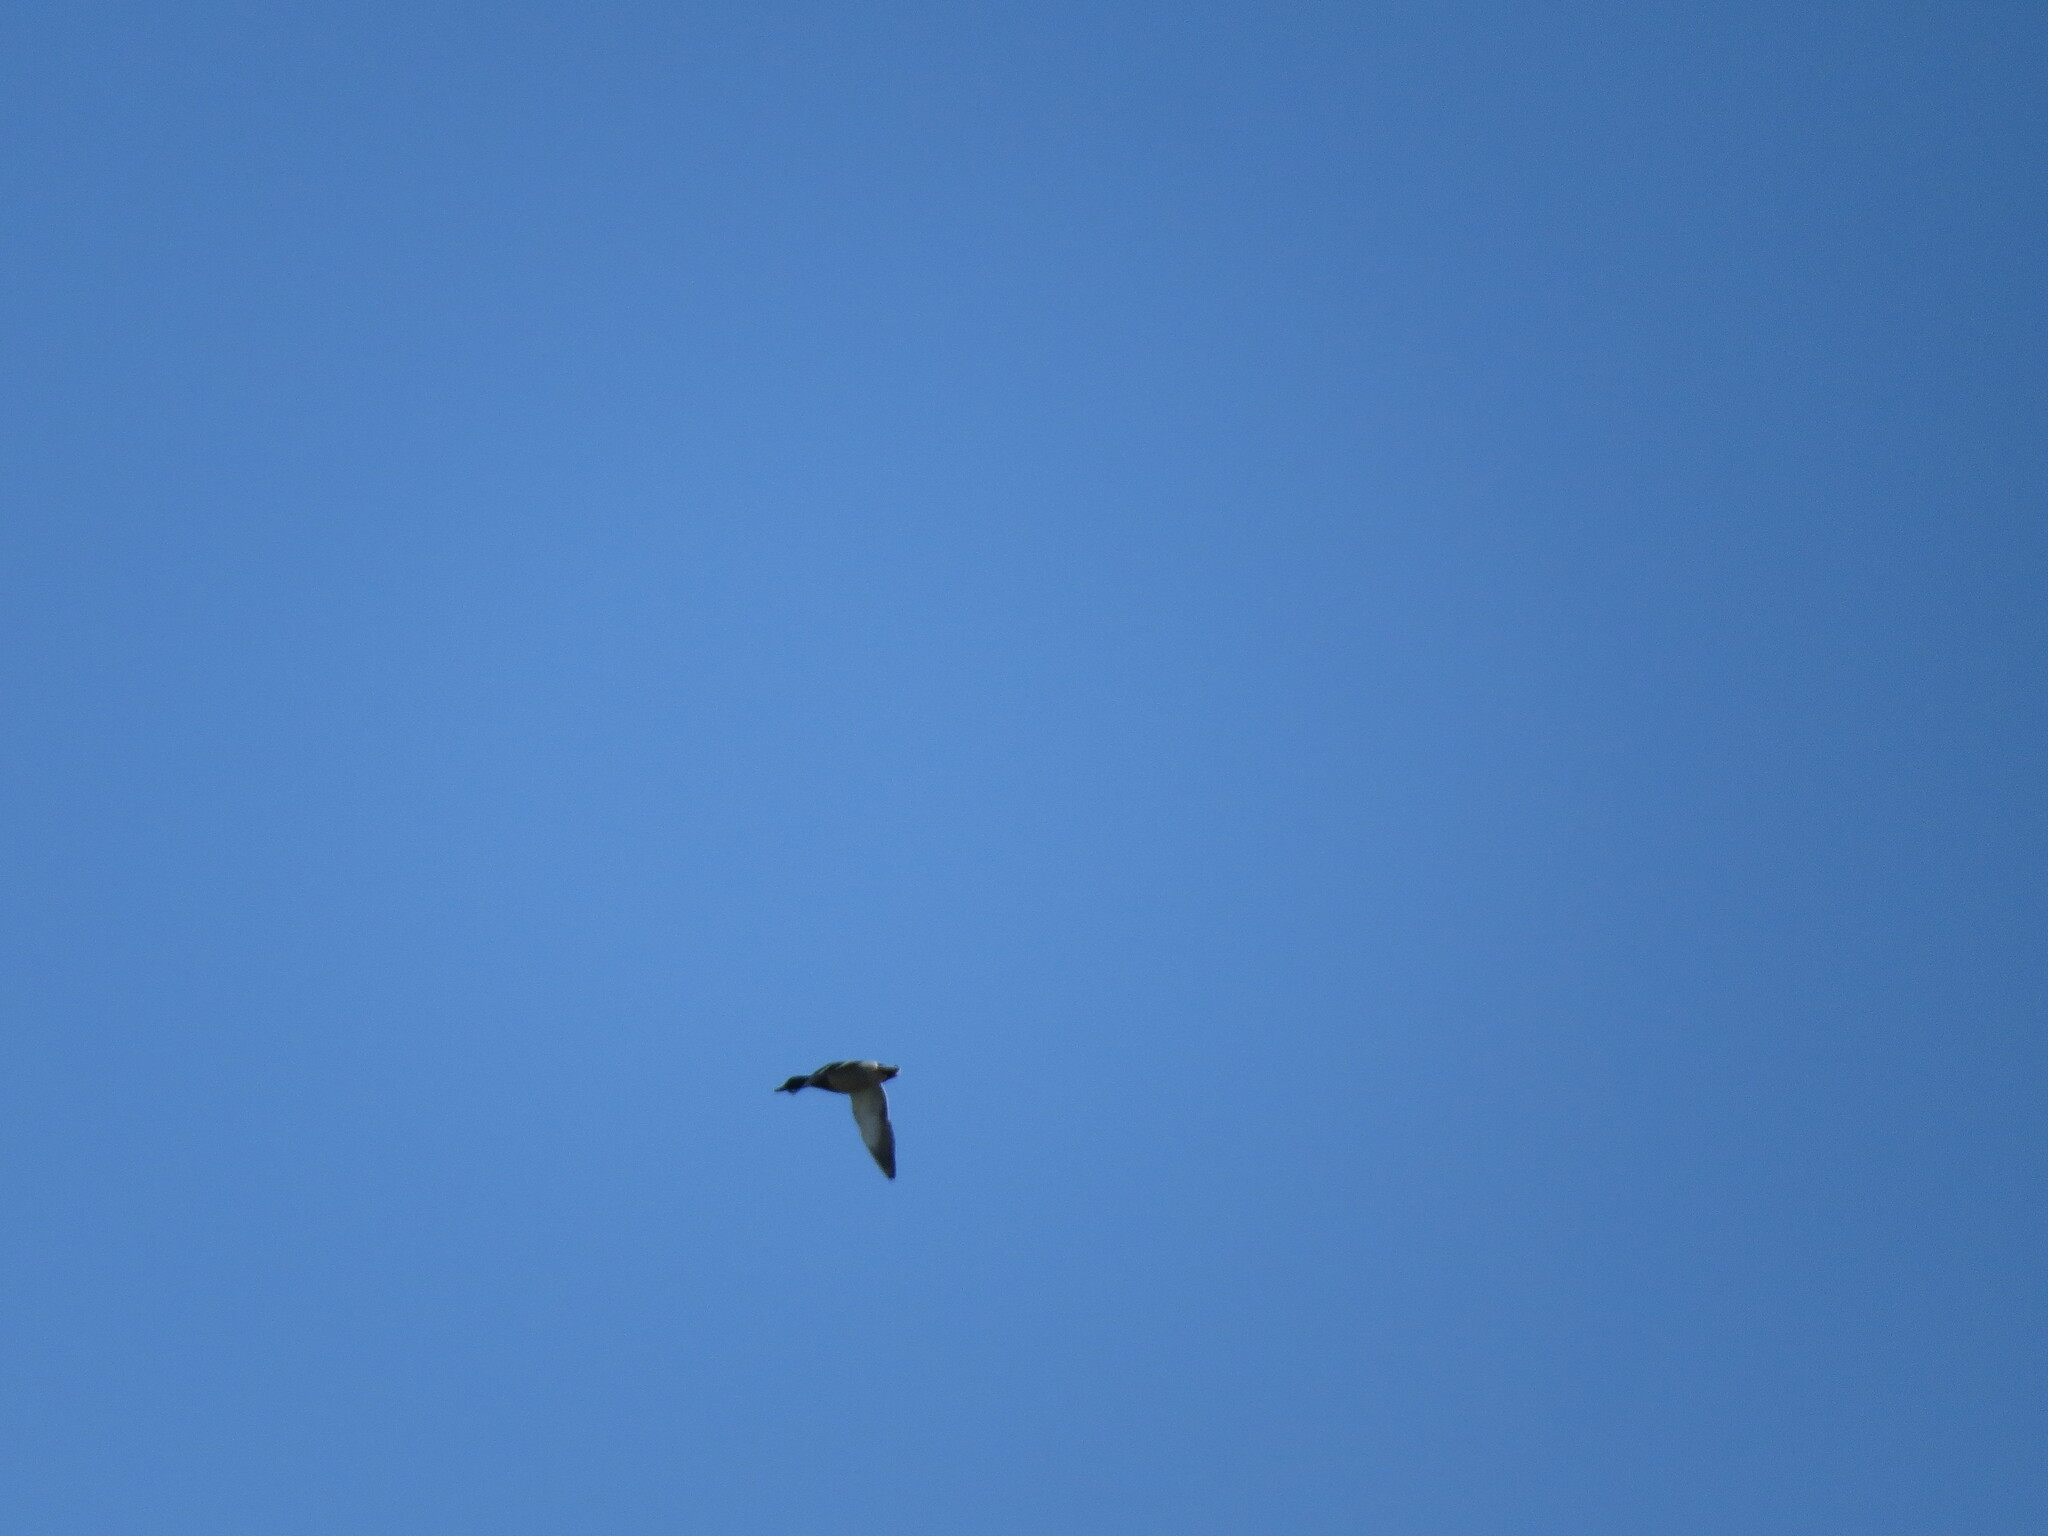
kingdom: Animalia
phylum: Chordata
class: Aves
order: Anseriformes
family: Anatidae
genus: Anas
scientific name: Anas platyrhynchos
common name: Mallard
